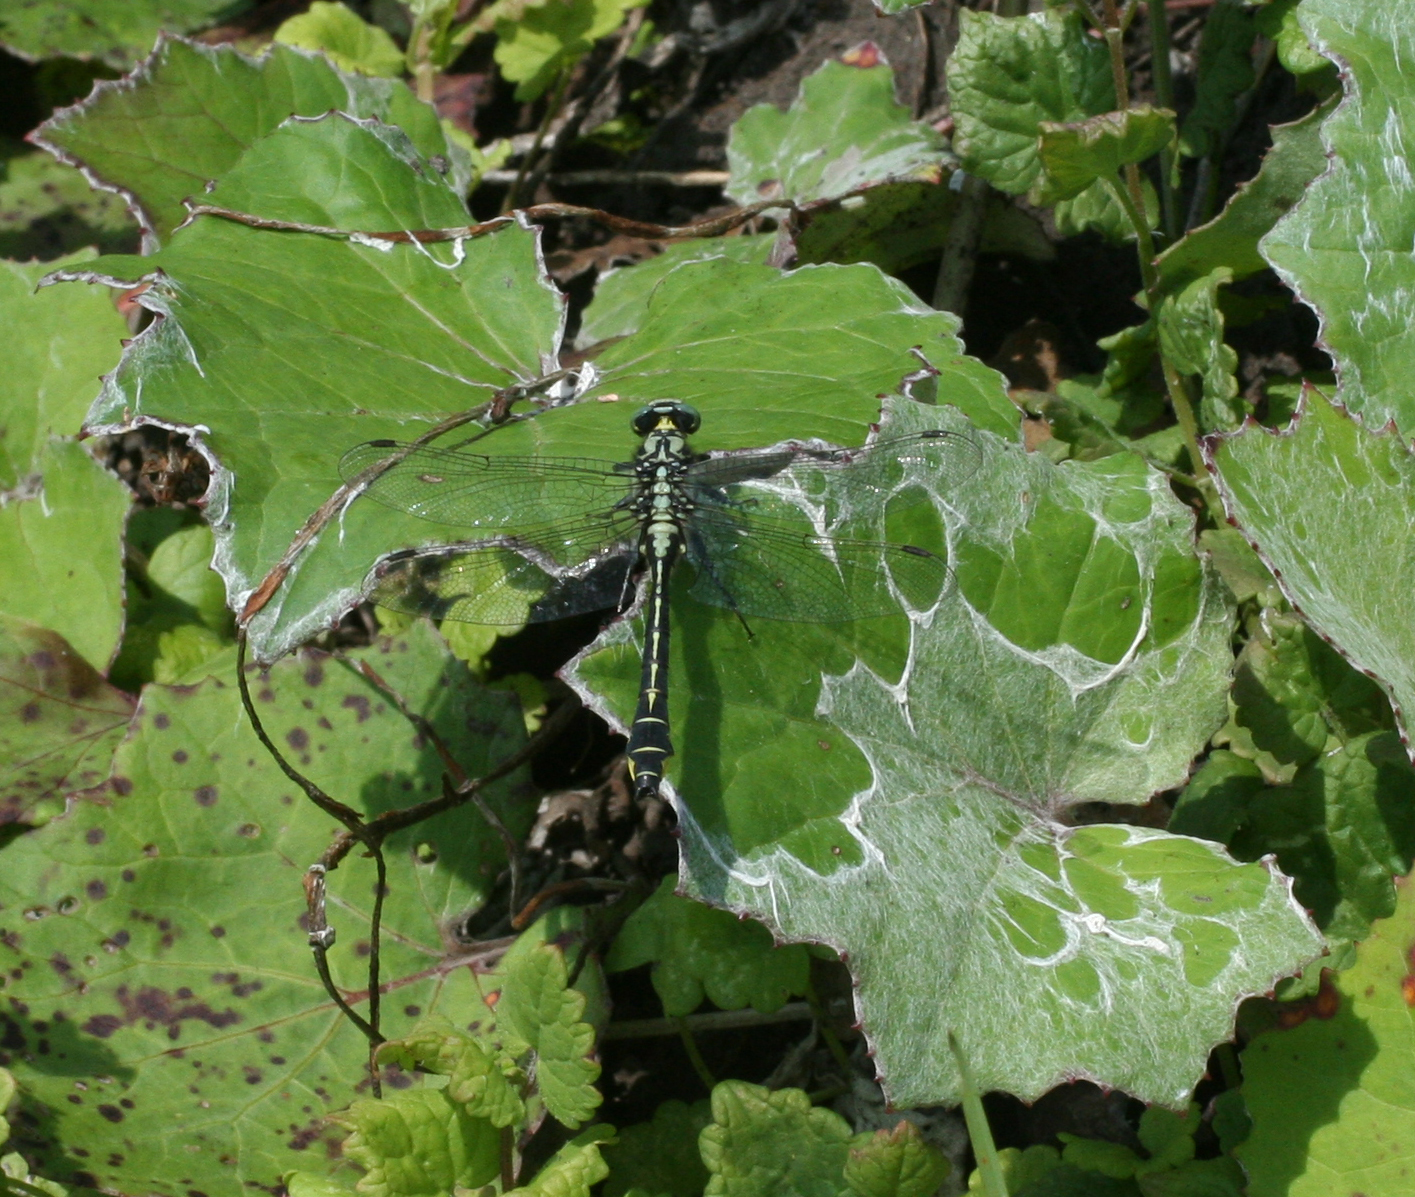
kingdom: Animalia
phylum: Arthropoda
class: Insecta
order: Odonata
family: Gomphidae
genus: Gomphus
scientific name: Gomphus vulgatissimus
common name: Club-tailed dragonfly
